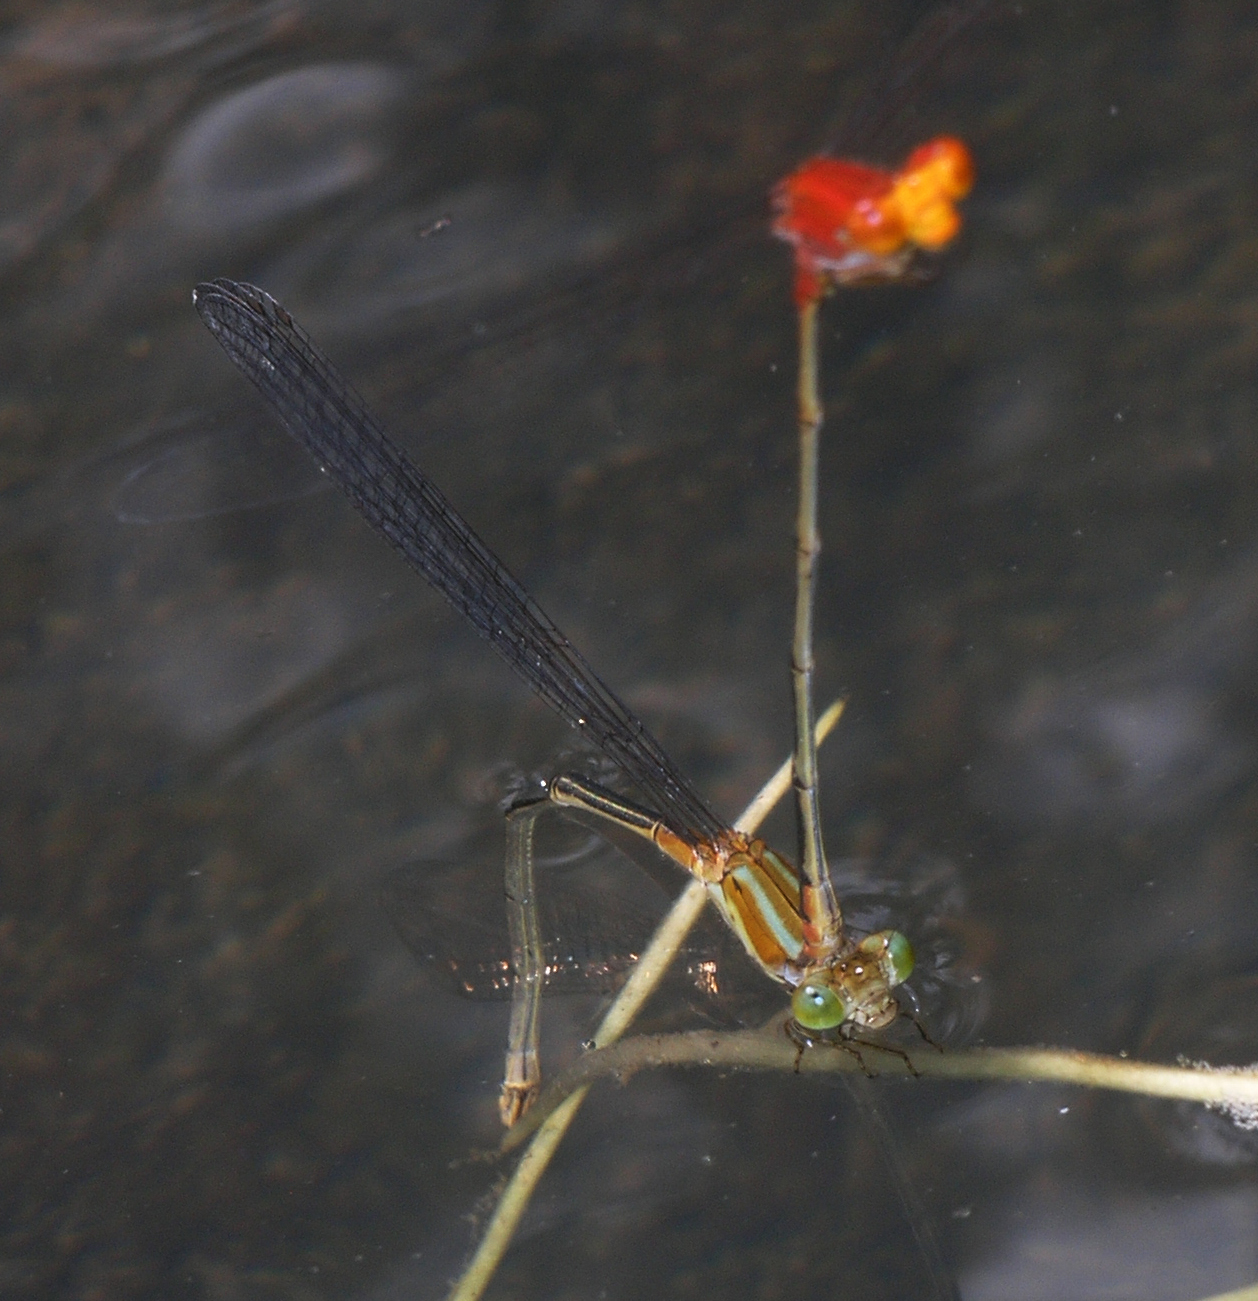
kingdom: Animalia
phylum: Arthropoda
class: Insecta
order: Odonata
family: Coenagrionidae
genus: Pseudagrion
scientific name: Pseudagrion pilidorsum
